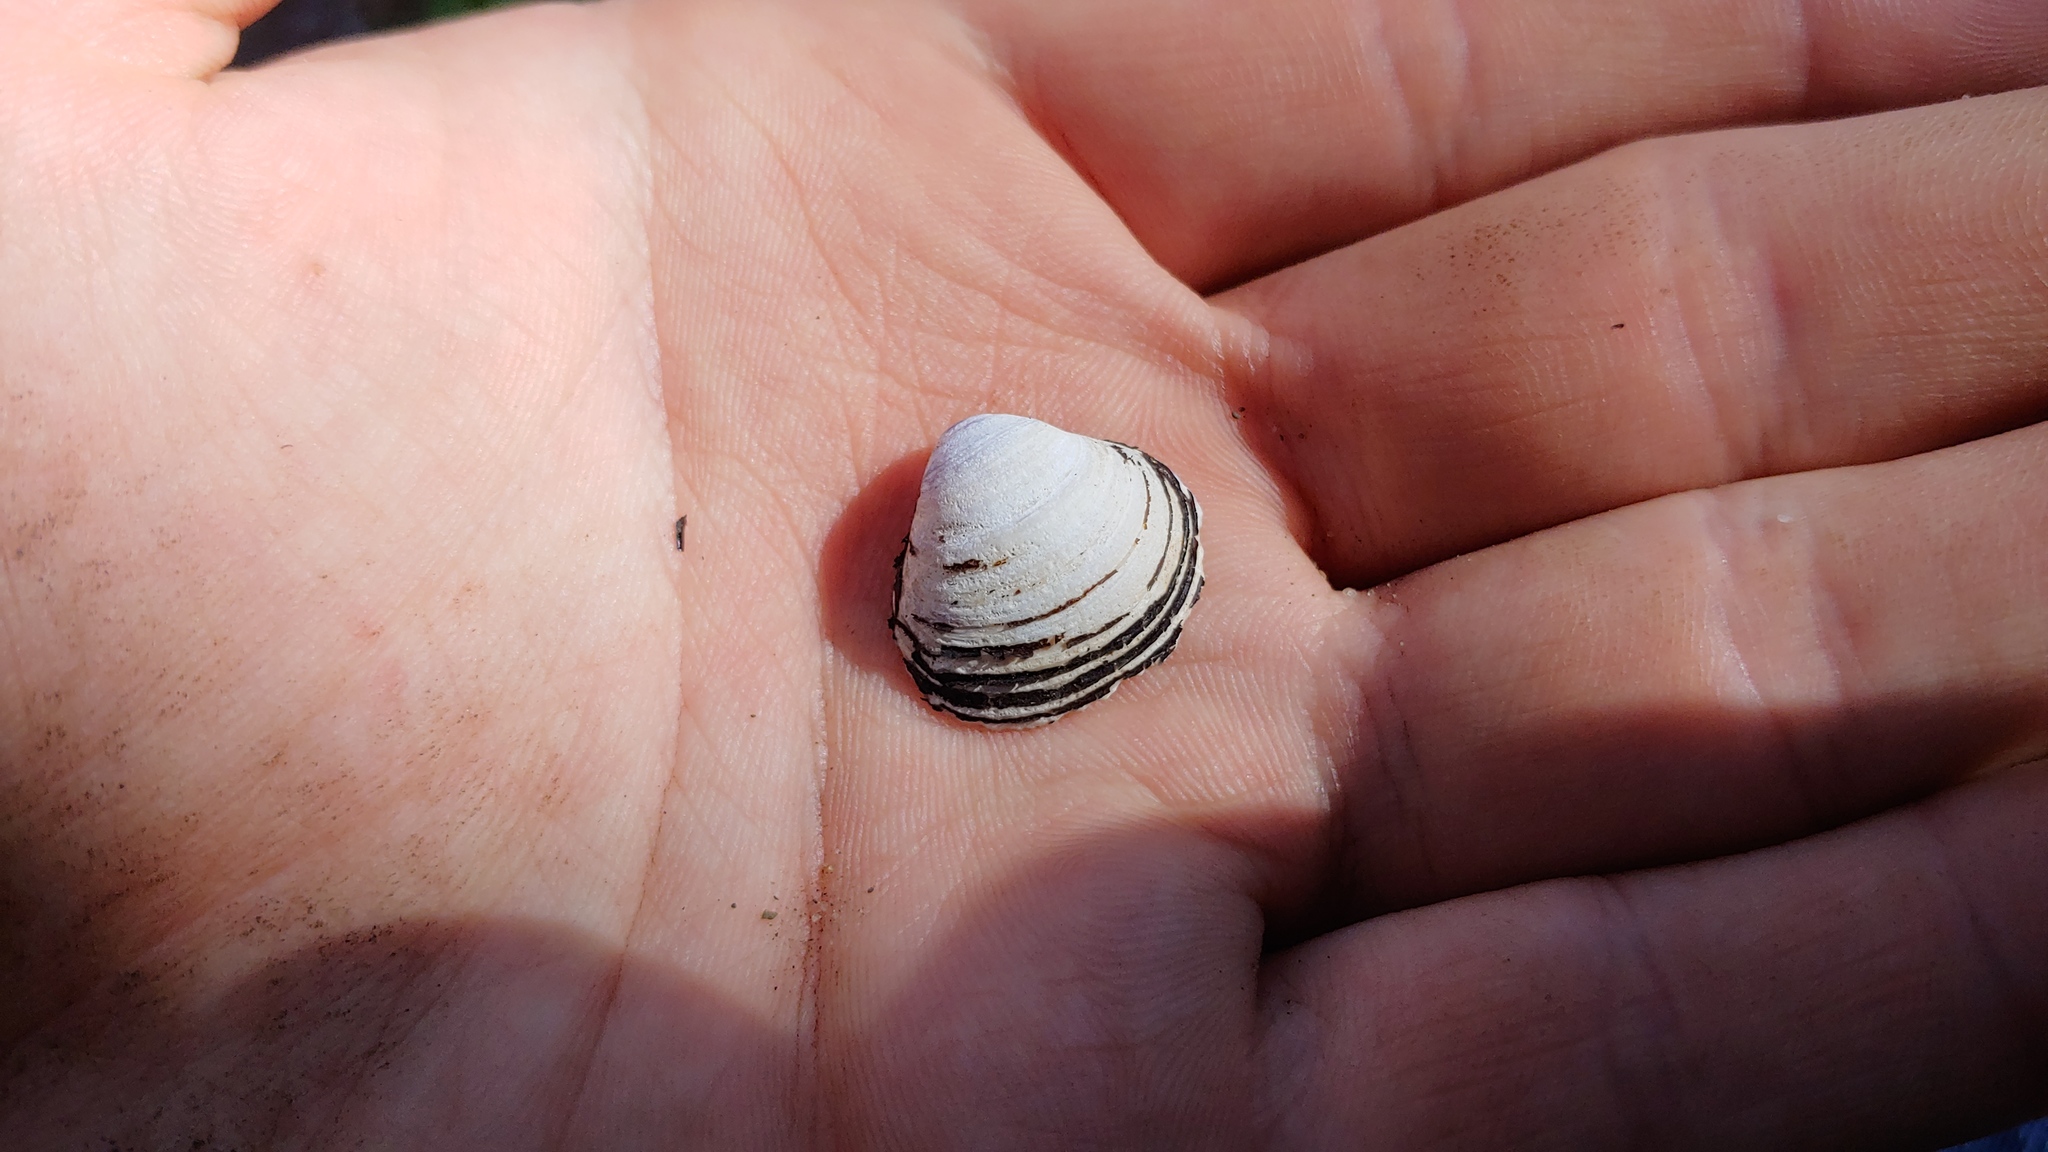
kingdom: Animalia
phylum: Mollusca
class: Bivalvia
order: Venerida
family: Cyrenidae
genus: Corbicula
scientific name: Corbicula fluminea
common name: Asian clam
